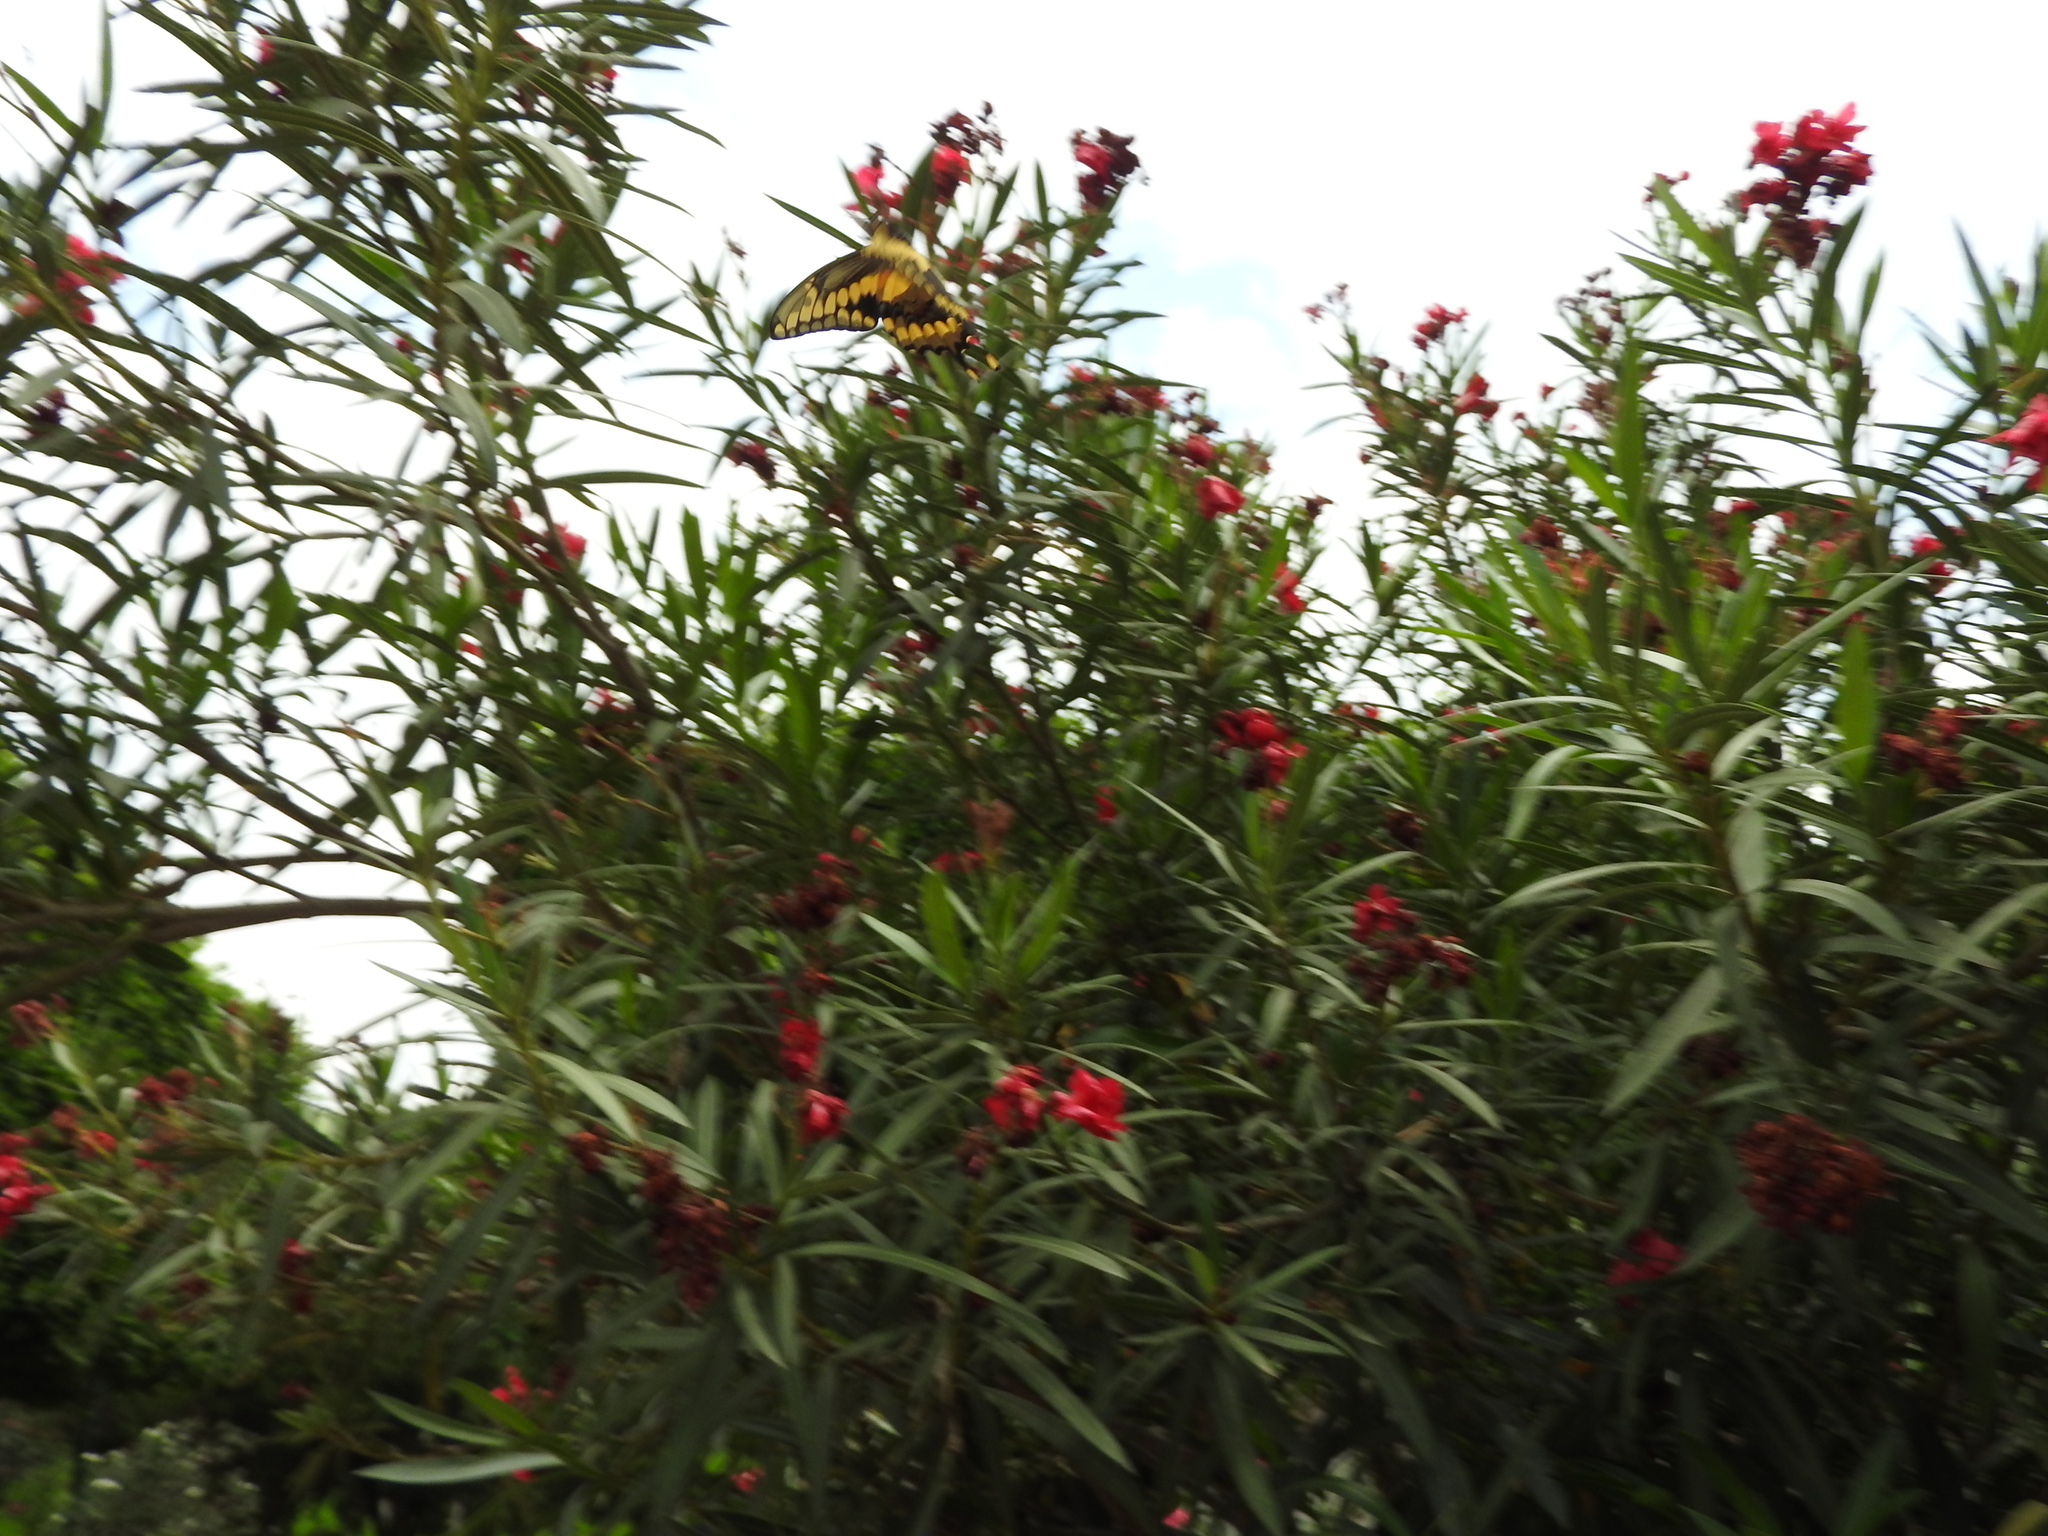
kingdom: Animalia
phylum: Arthropoda
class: Insecta
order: Lepidoptera
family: Papilionidae
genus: Papilio
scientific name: Papilio rumiko
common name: Western giant swallowtail
